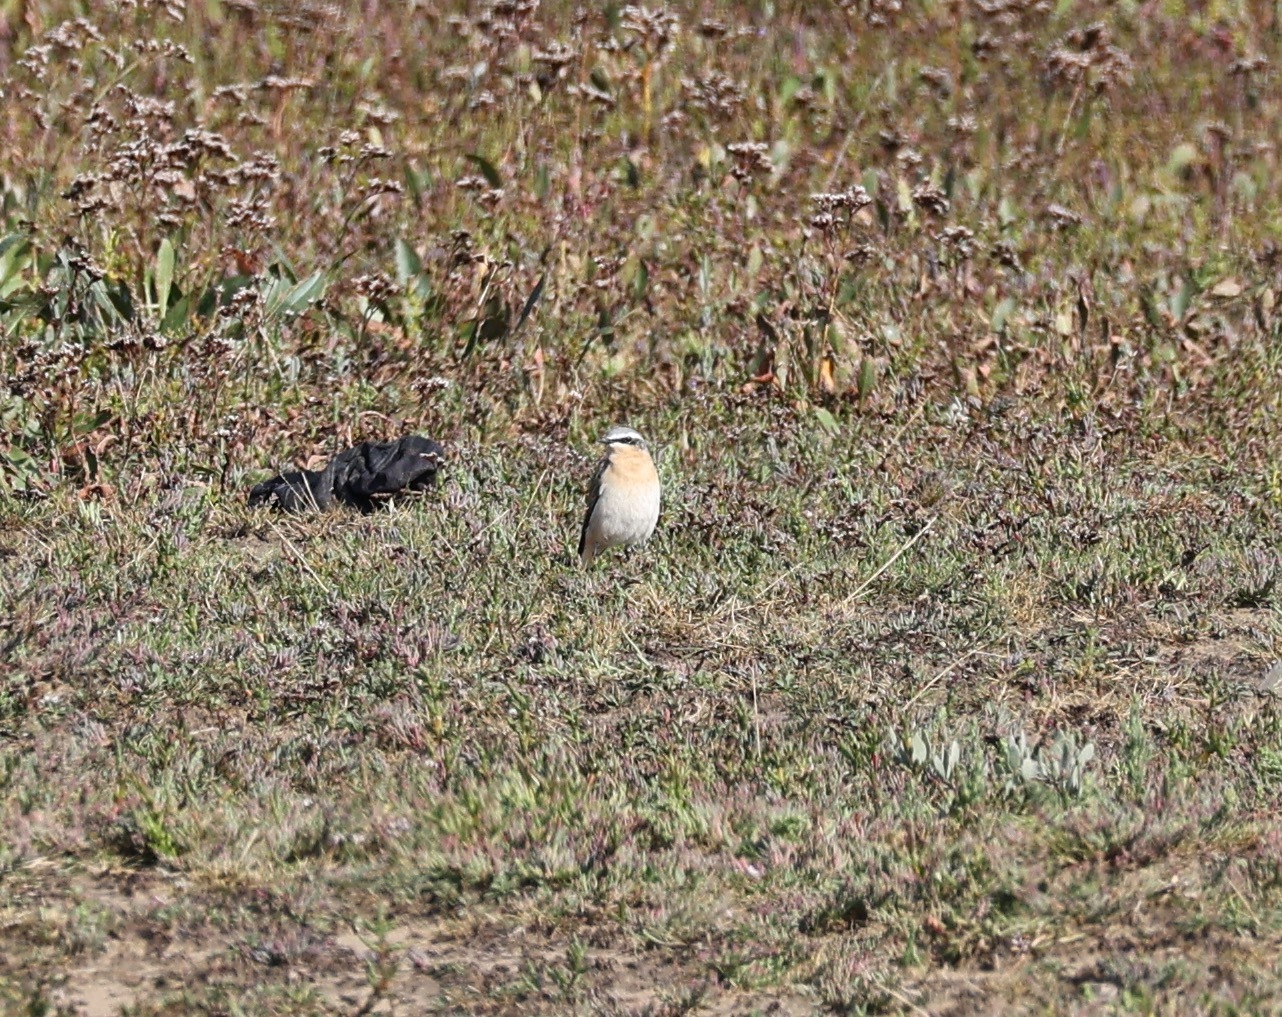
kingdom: Animalia
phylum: Chordata
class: Aves
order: Passeriformes
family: Muscicapidae
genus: Oenanthe
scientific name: Oenanthe oenanthe
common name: Northern wheatear
